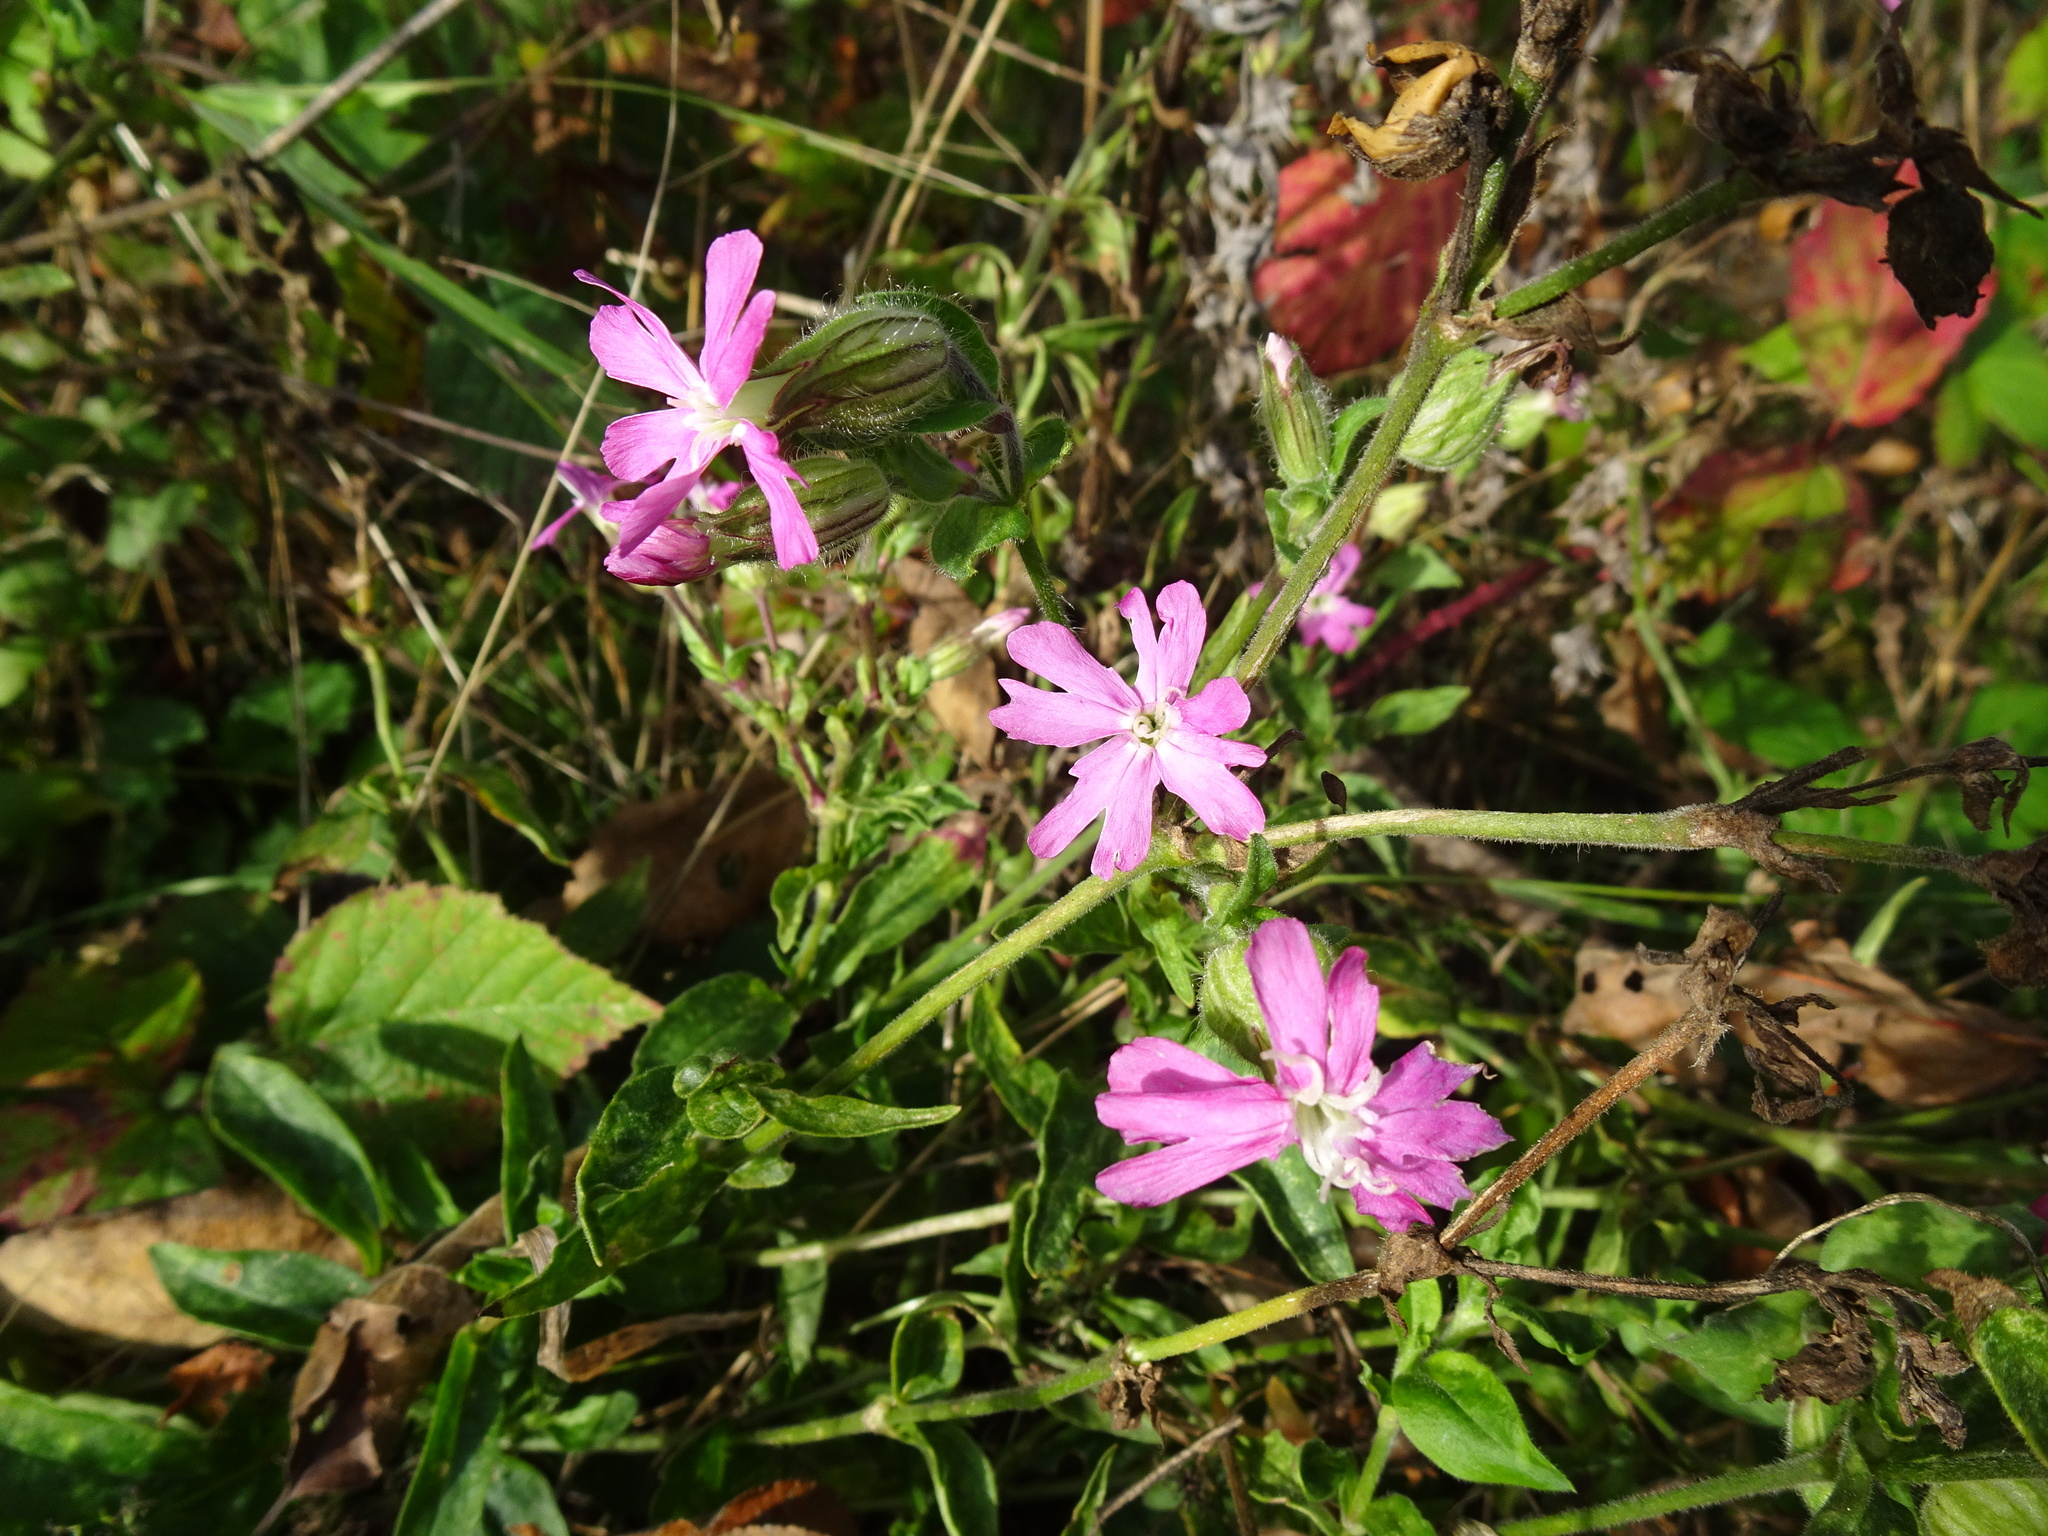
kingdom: Plantae
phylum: Tracheophyta
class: Magnoliopsida
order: Caryophyllales
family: Caryophyllaceae
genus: Silene
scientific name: Silene dioica
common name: Red campion
